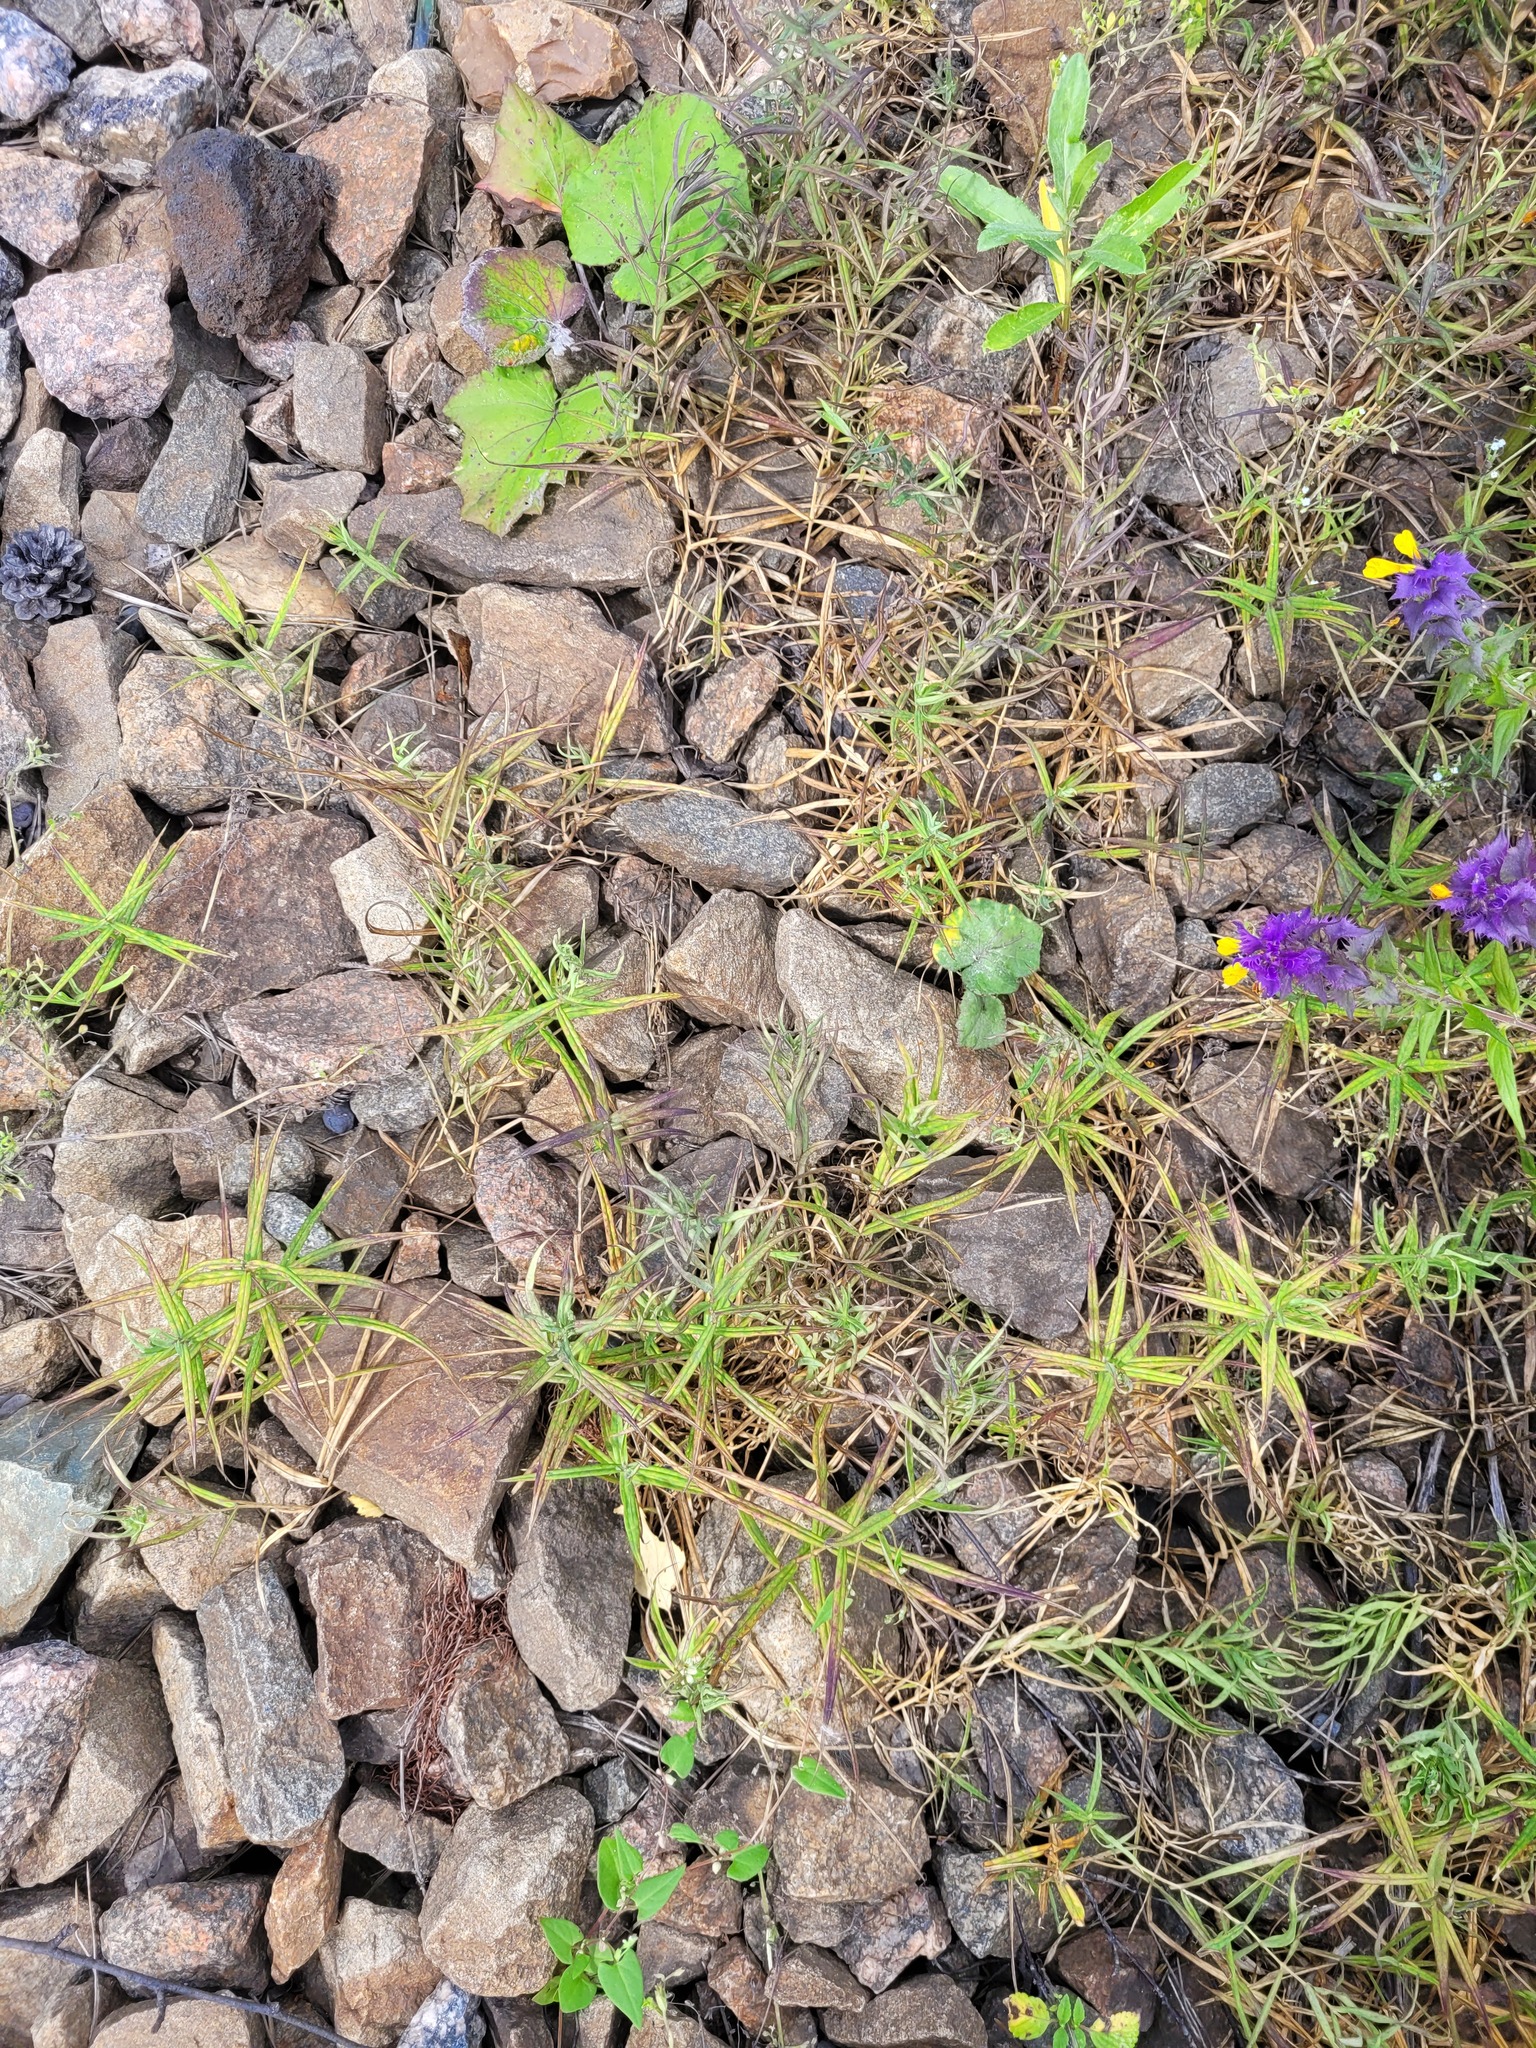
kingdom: Plantae
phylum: Tracheophyta
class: Magnoliopsida
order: Caryophyllales
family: Caryophyllaceae
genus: Rabelera
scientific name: Rabelera holostea
